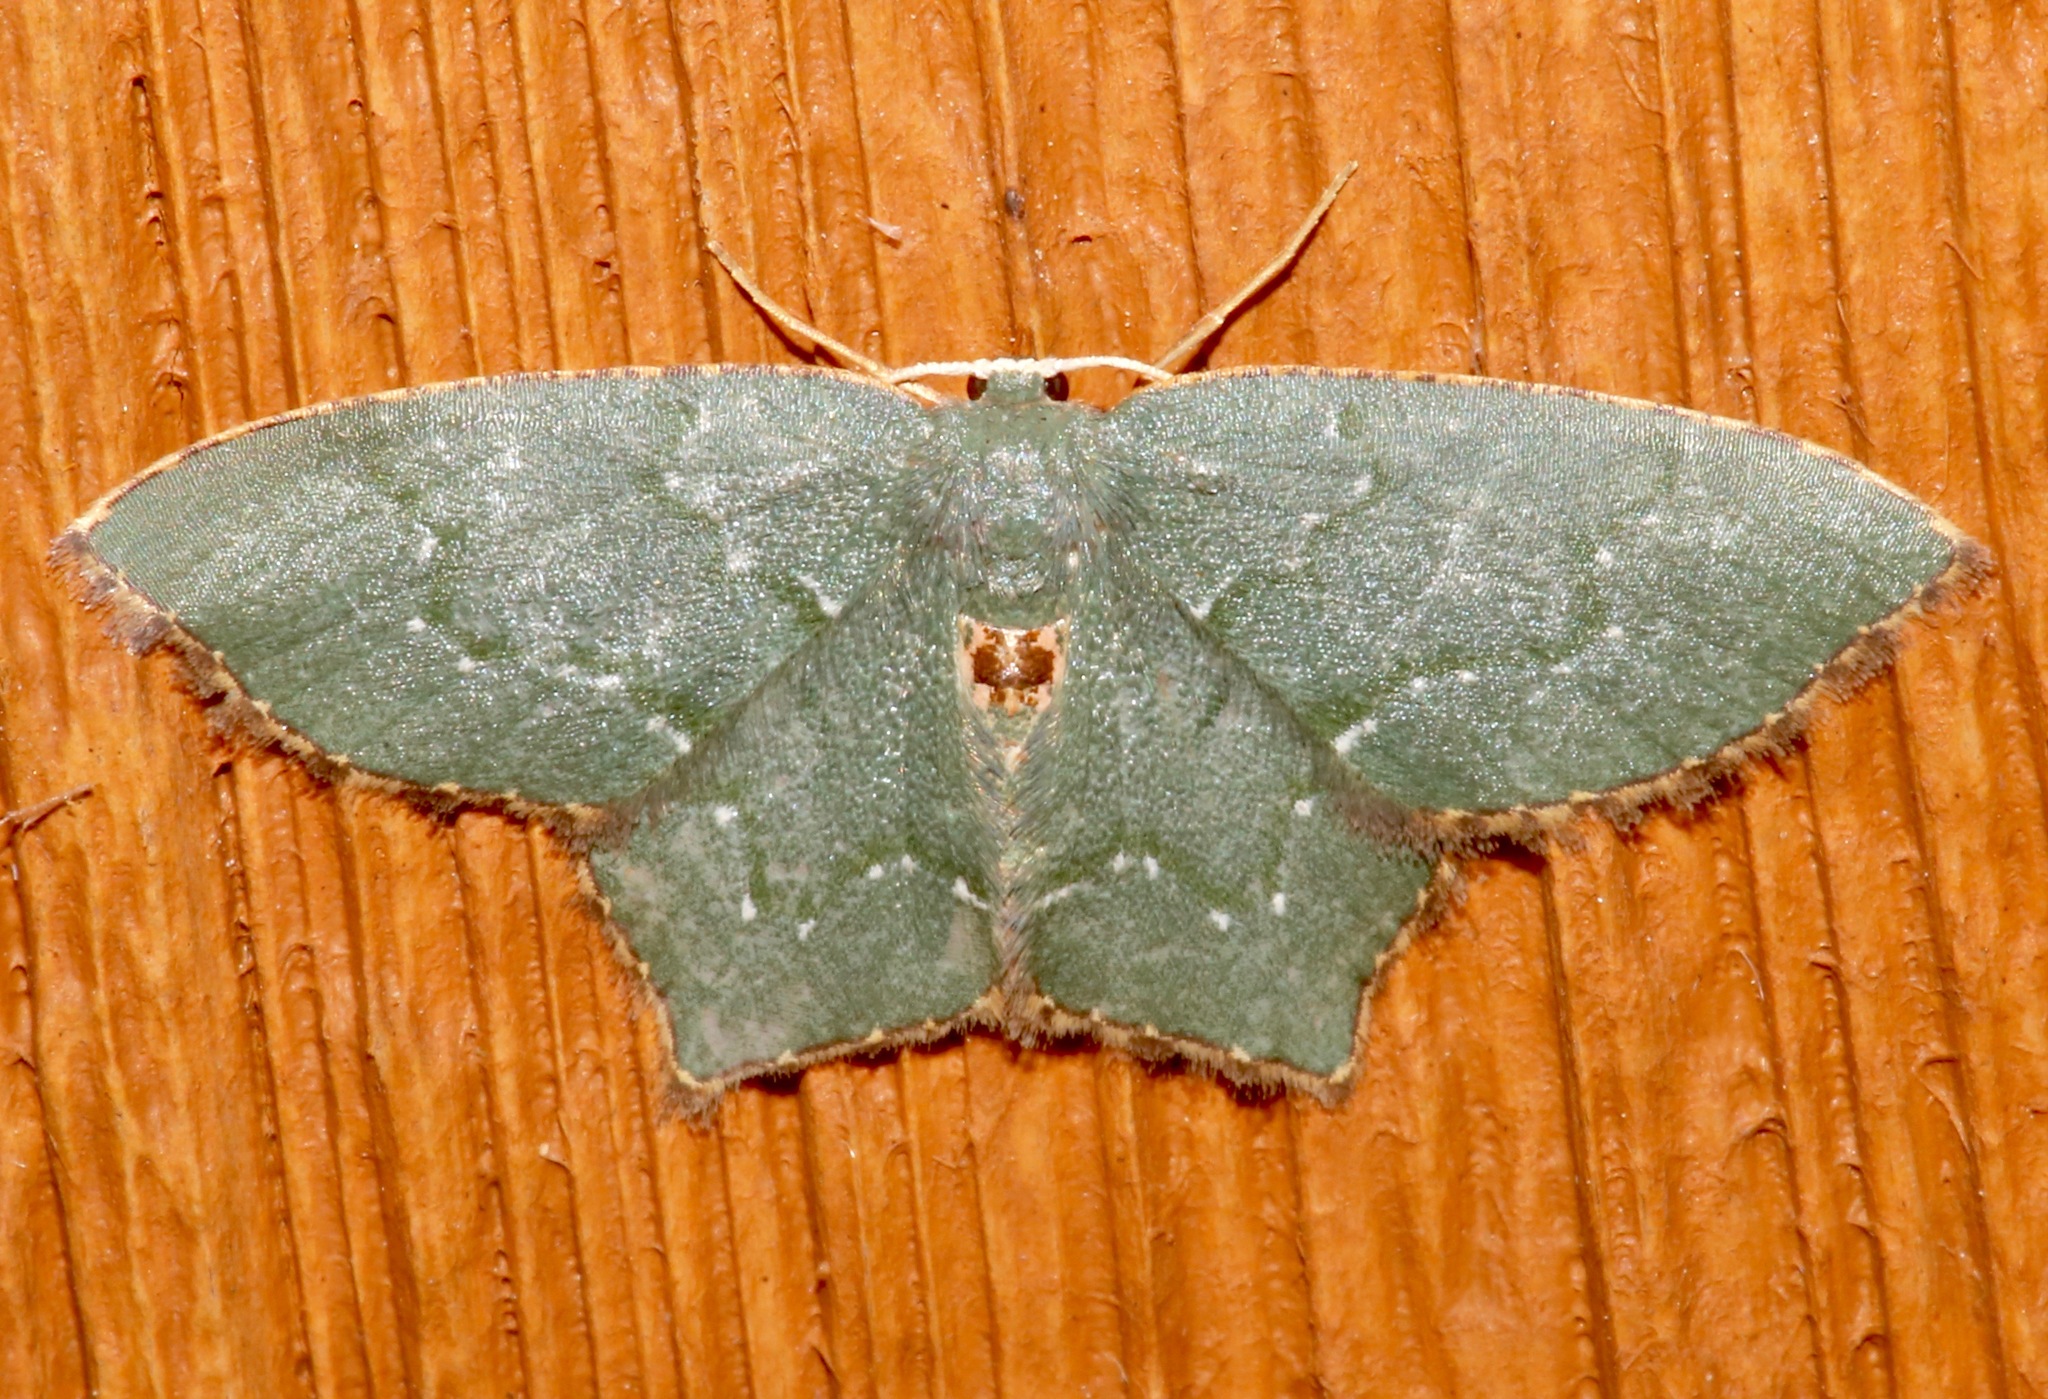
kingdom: Animalia
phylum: Arthropoda
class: Insecta
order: Lepidoptera
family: Geometridae
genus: Chloropteryx
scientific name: Chloropteryx tepperaria
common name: Angle winged emerald moth
